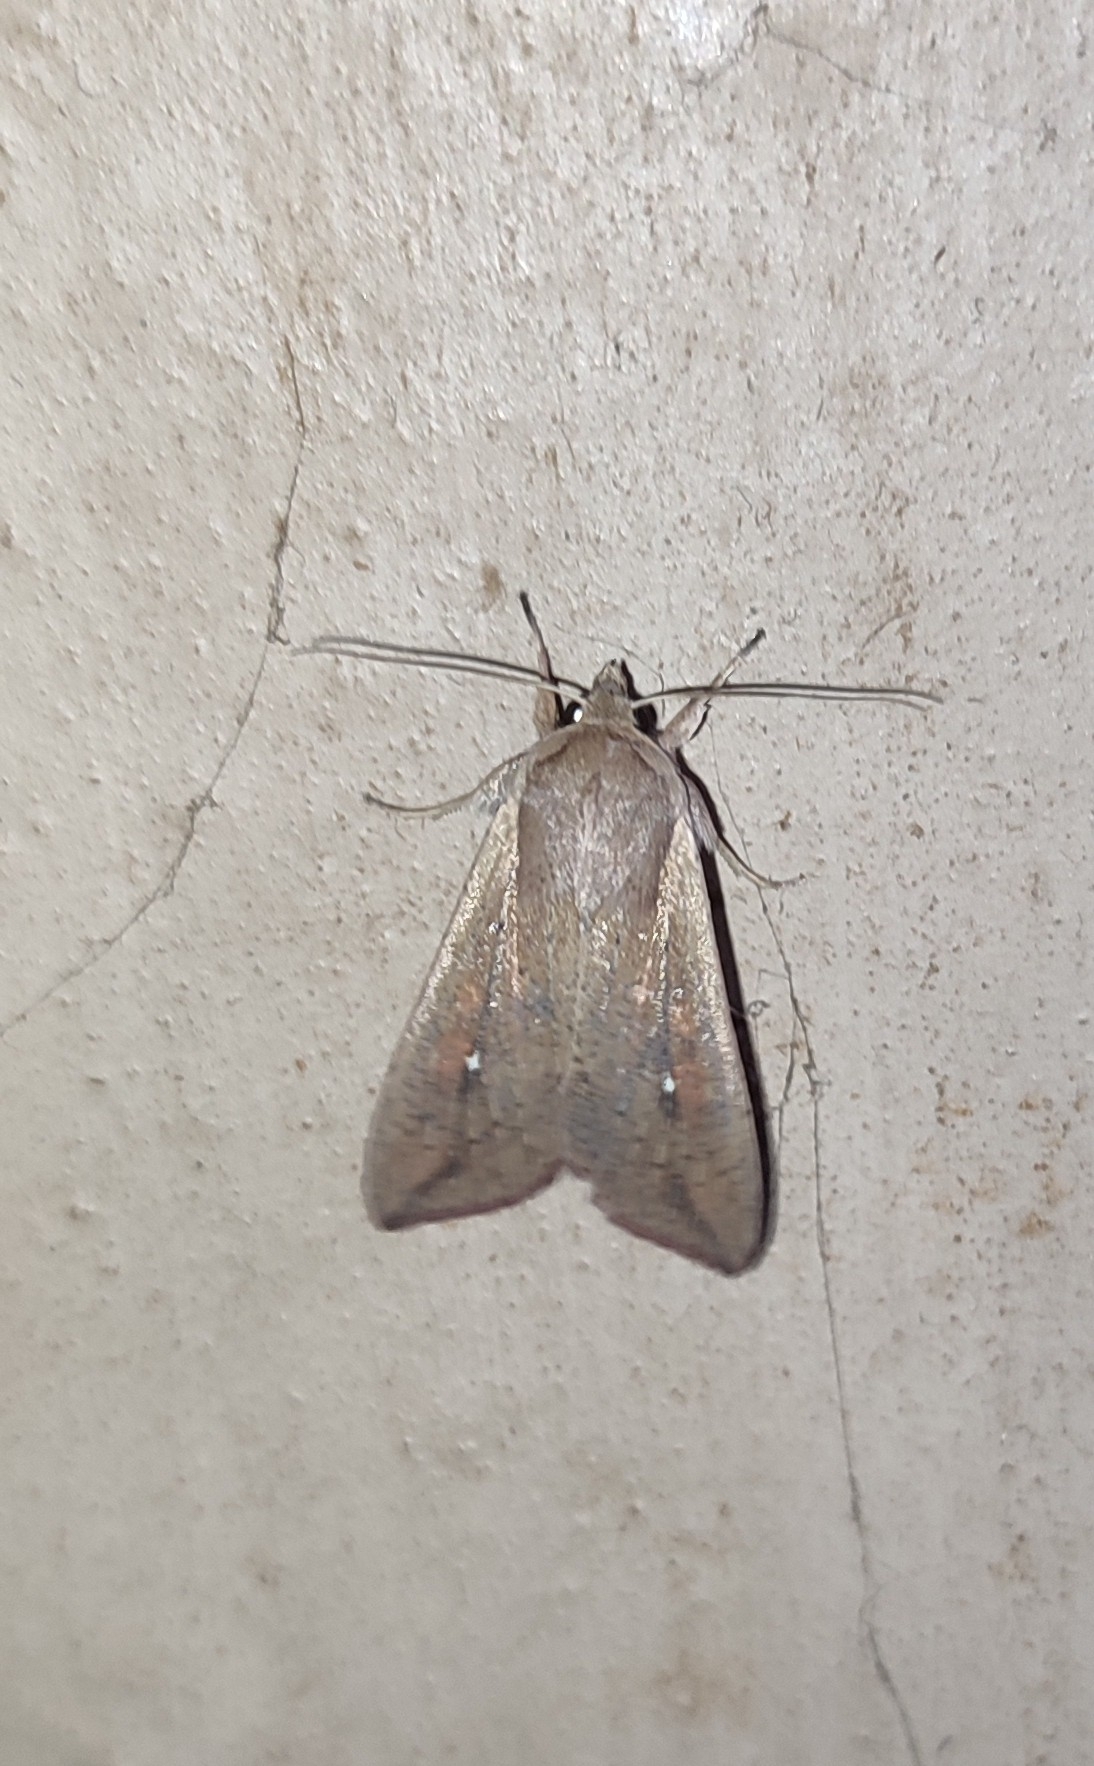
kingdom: Animalia
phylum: Arthropoda
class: Insecta
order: Lepidoptera
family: Noctuidae
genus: Mythimna
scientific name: Mythimna unipuncta
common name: White-speck
